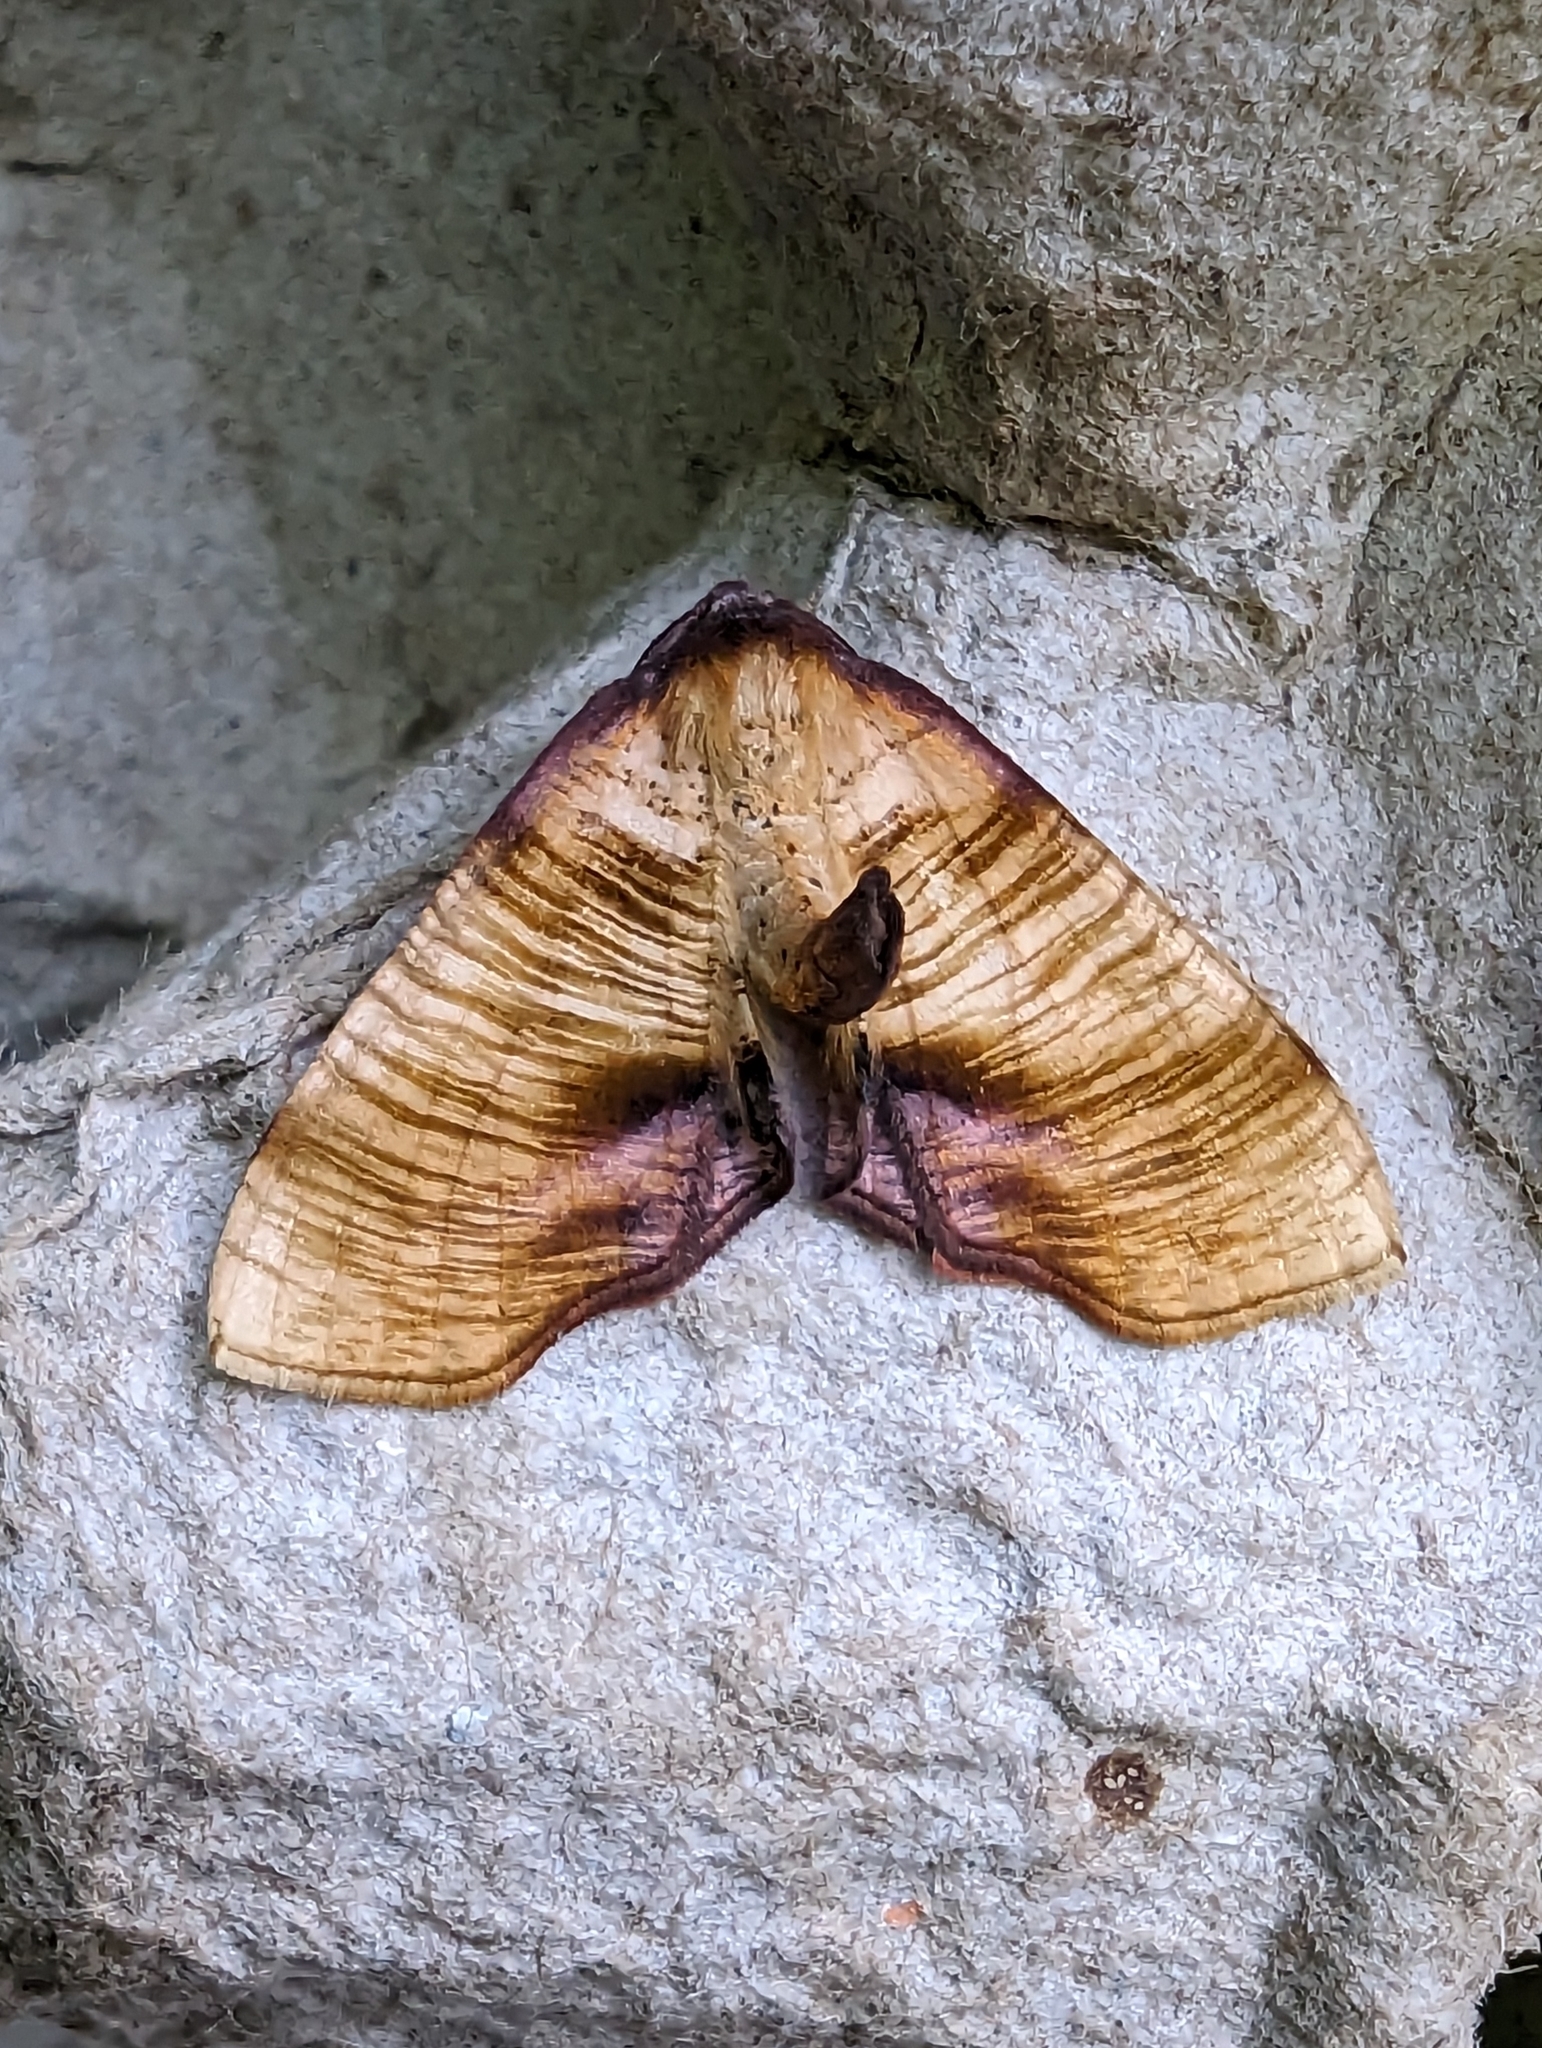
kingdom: Animalia
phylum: Arthropoda
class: Insecta
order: Lepidoptera
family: Geometridae
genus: Plagodis
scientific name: Plagodis dolabraria
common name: Scorched wing
